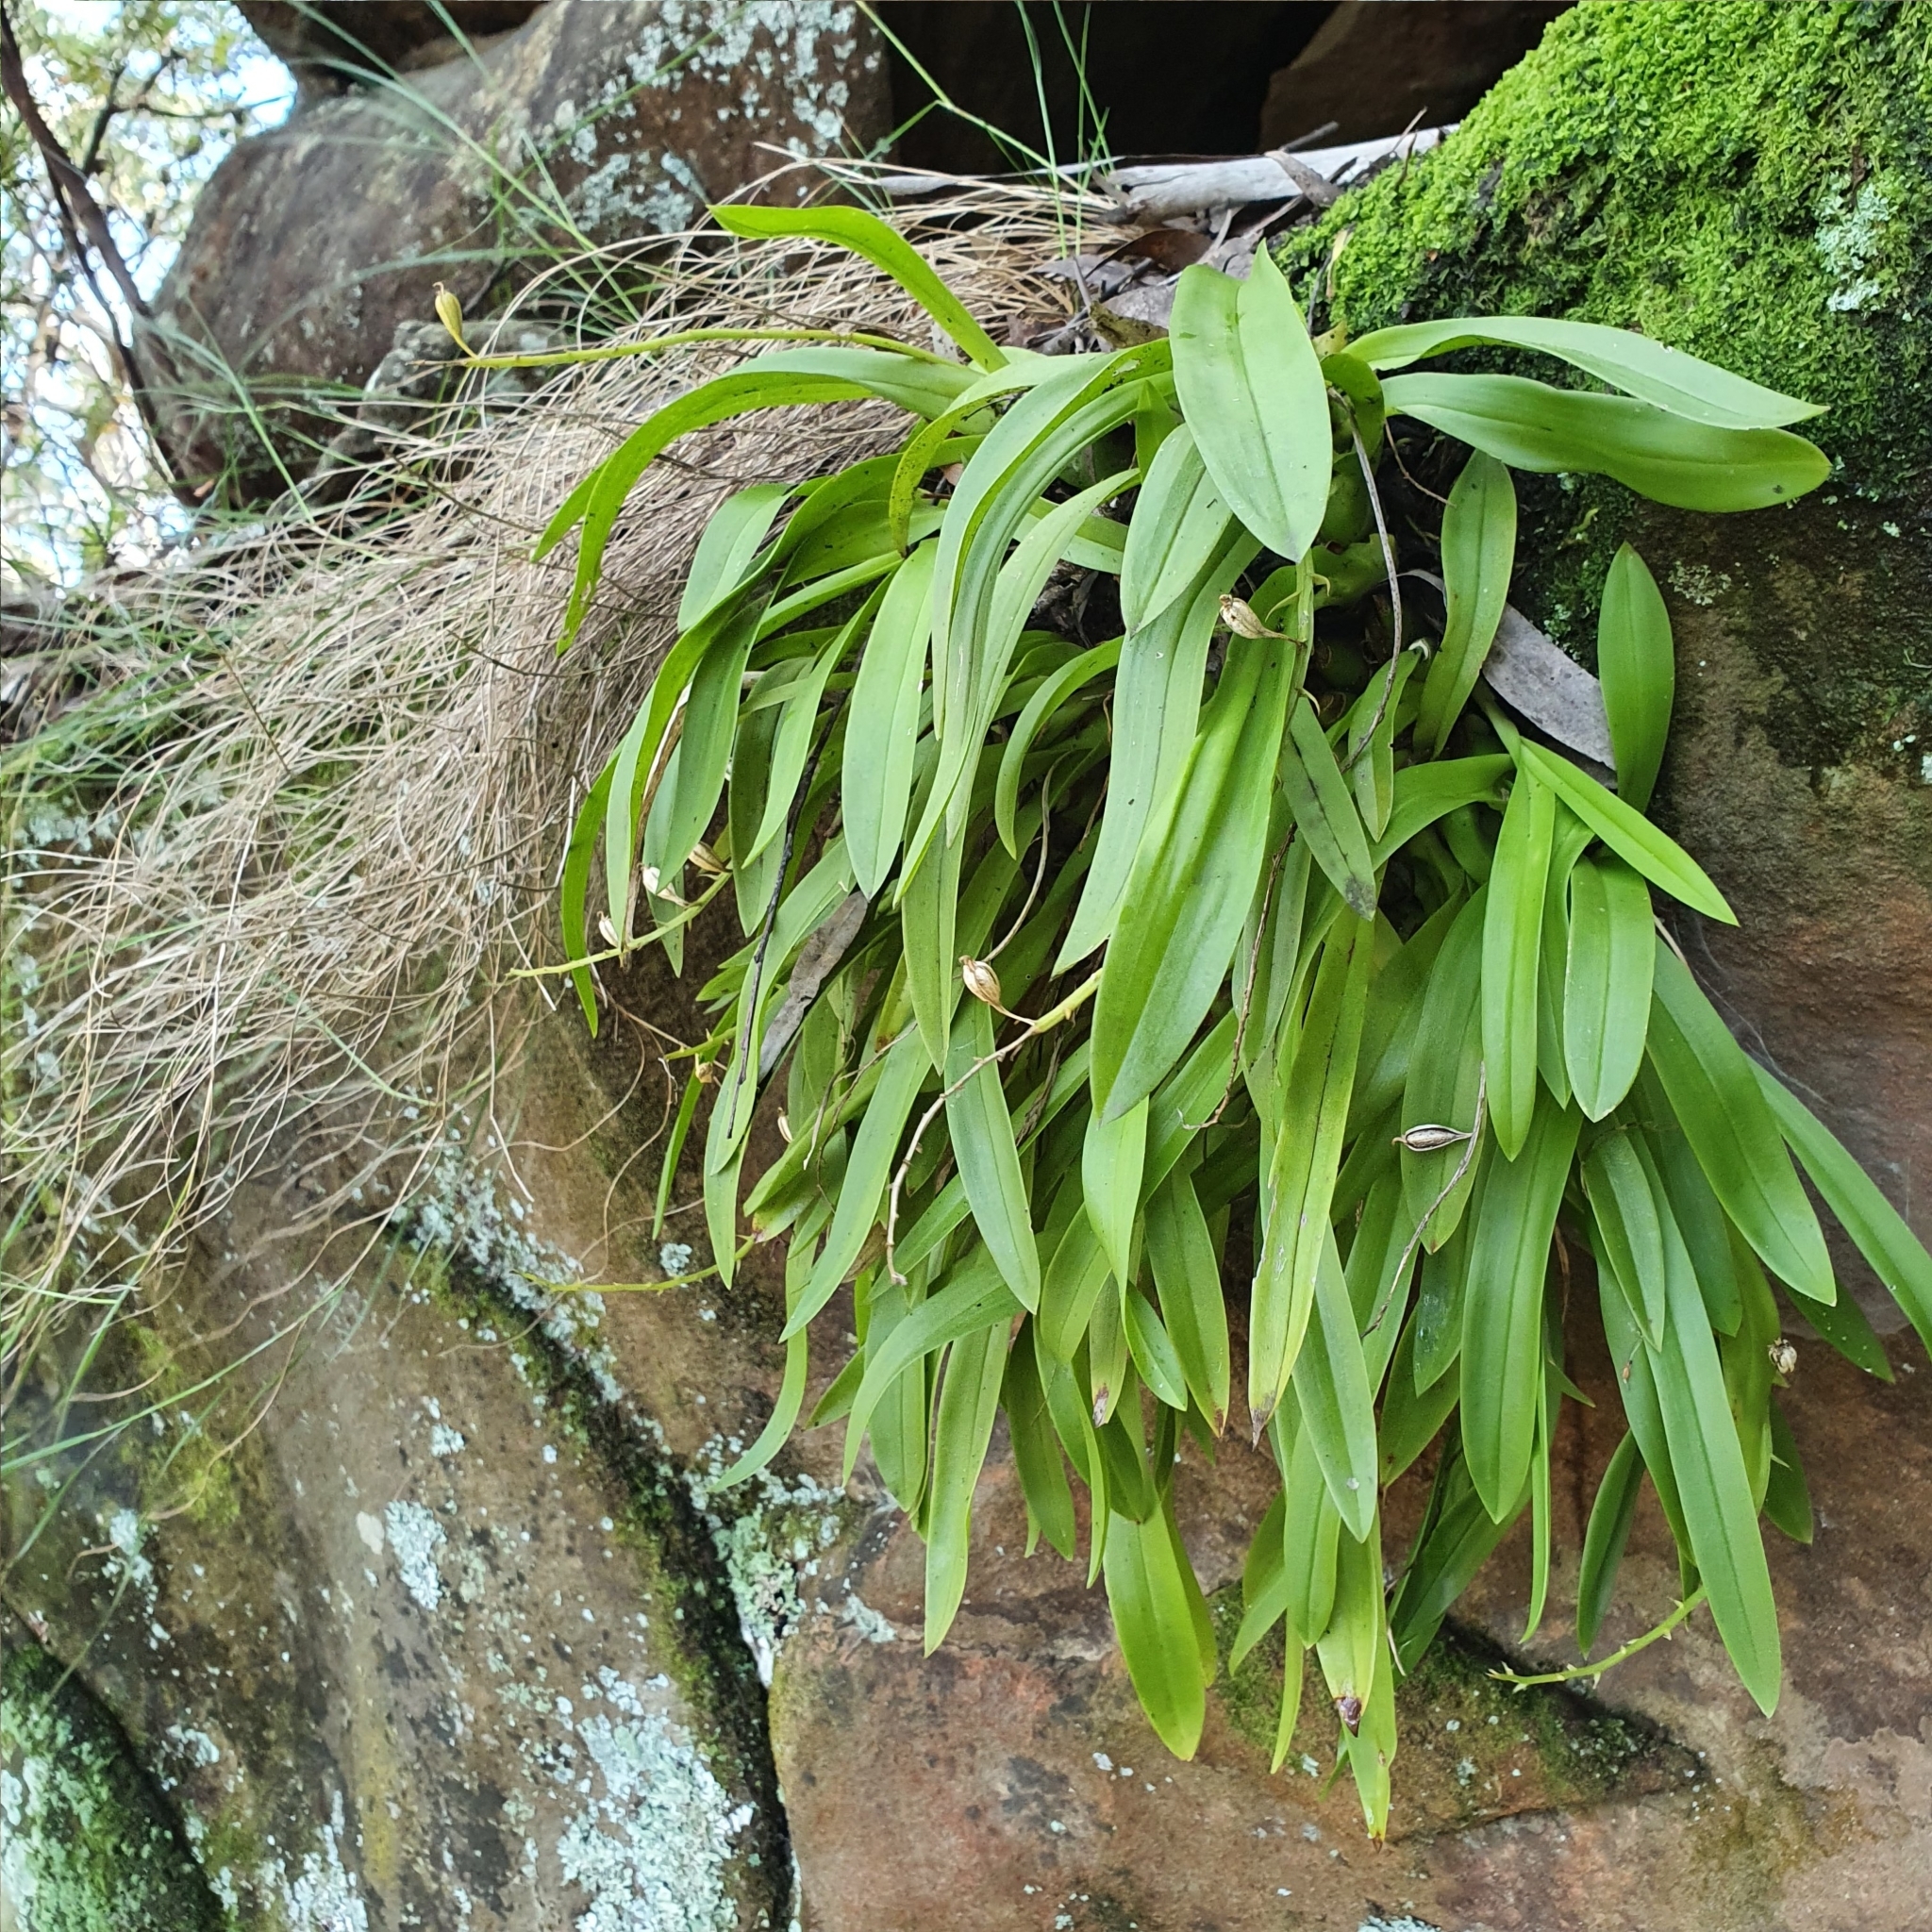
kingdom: Plantae
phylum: Tracheophyta
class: Liliopsida
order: Asparagales
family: Orchidaceae
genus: Liparis
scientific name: Liparis reflexa
